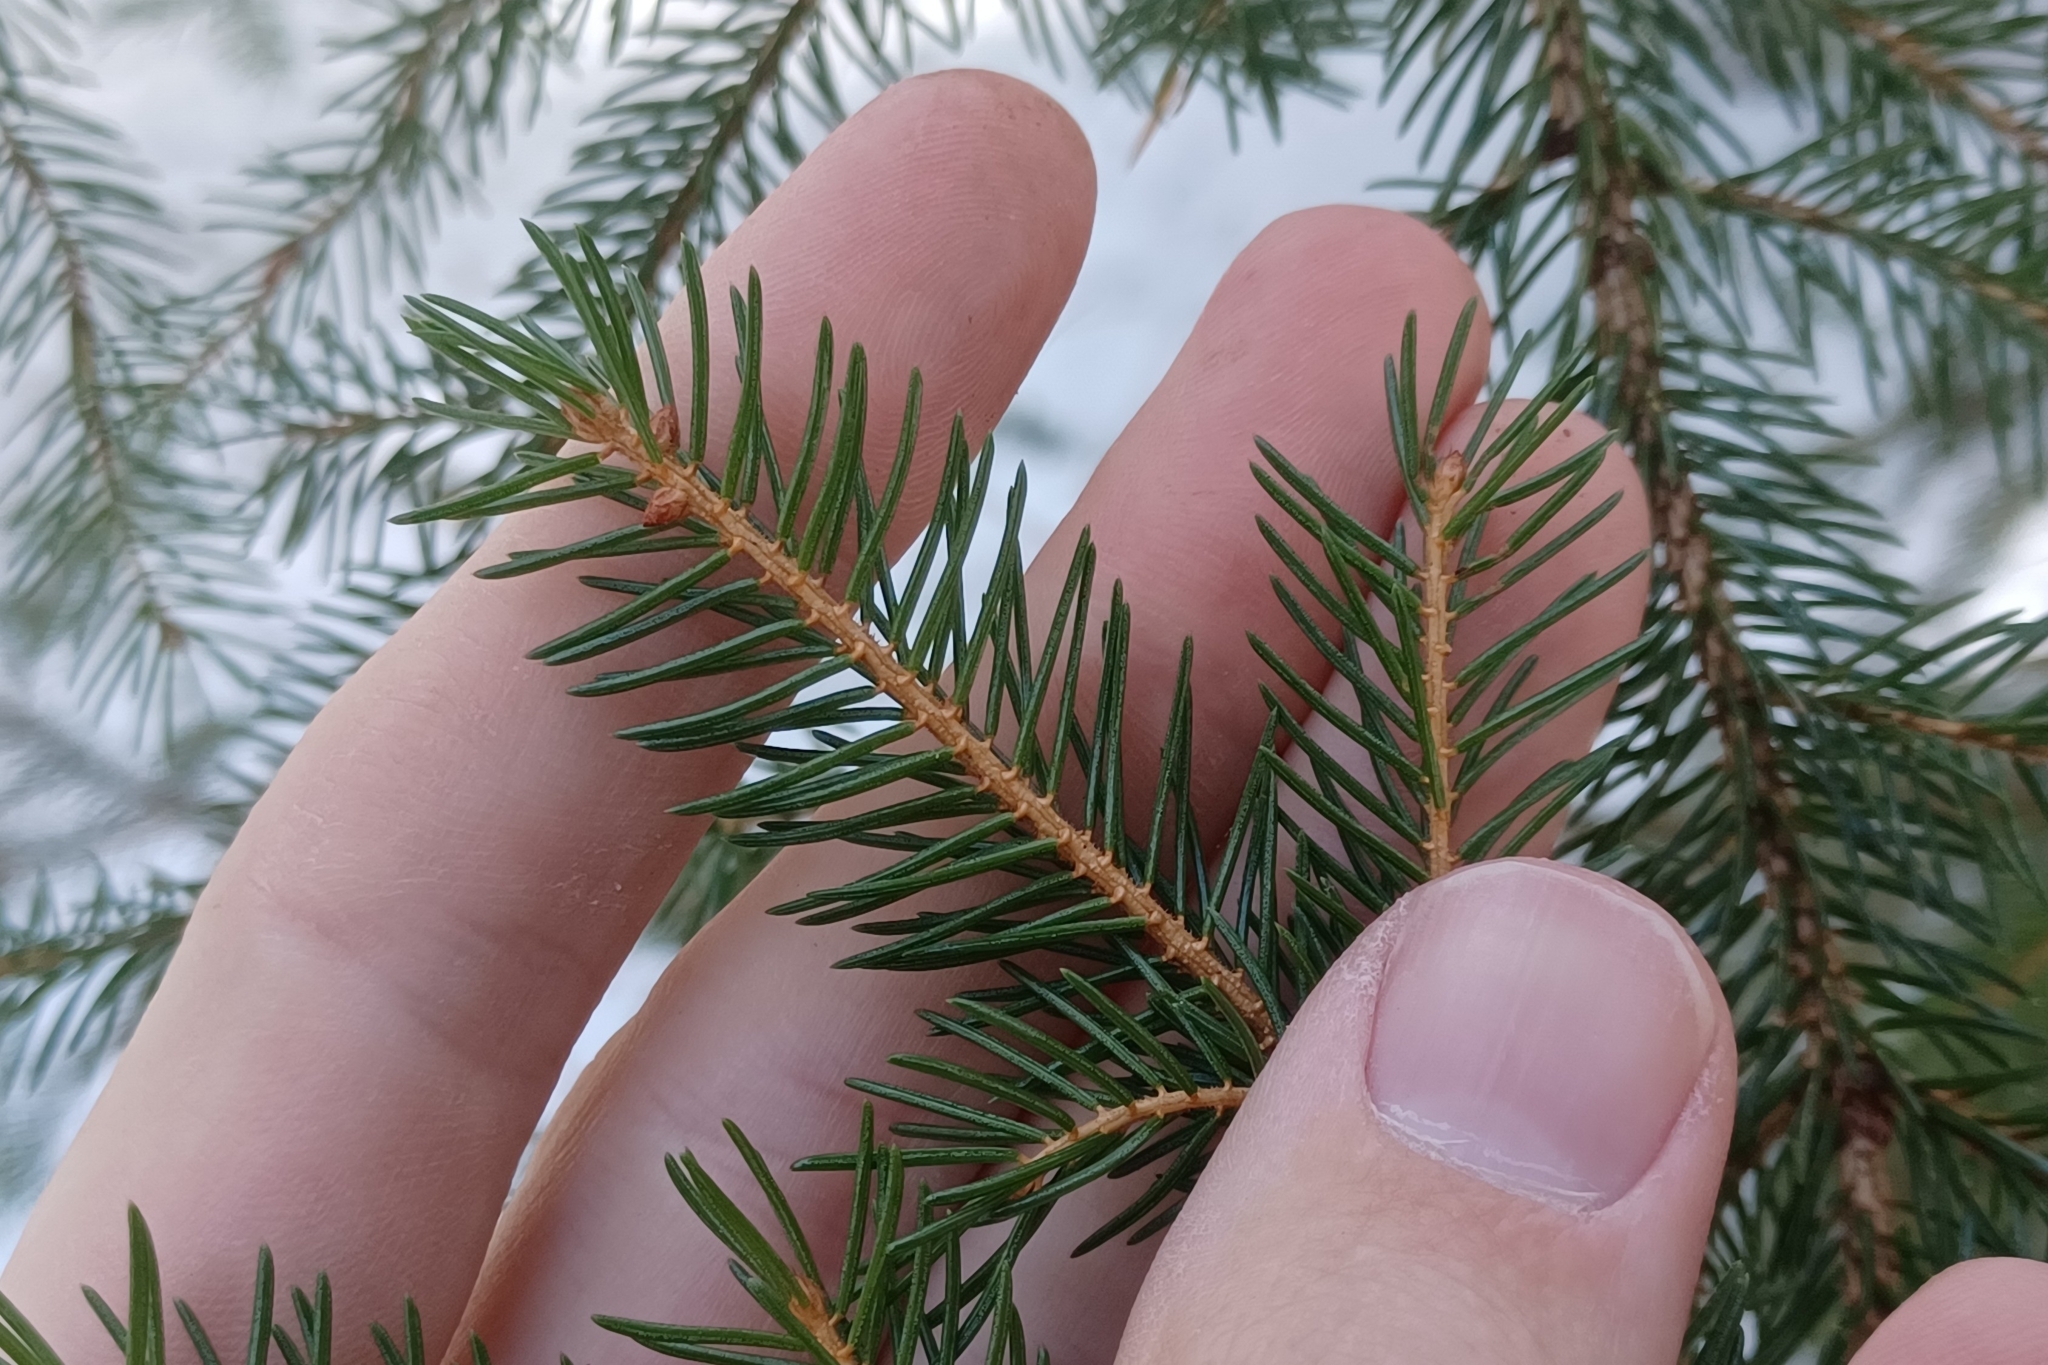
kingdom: Plantae
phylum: Tracheophyta
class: Pinopsida
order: Pinales
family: Pinaceae
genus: Picea
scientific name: Picea rubens
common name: Red spruce
